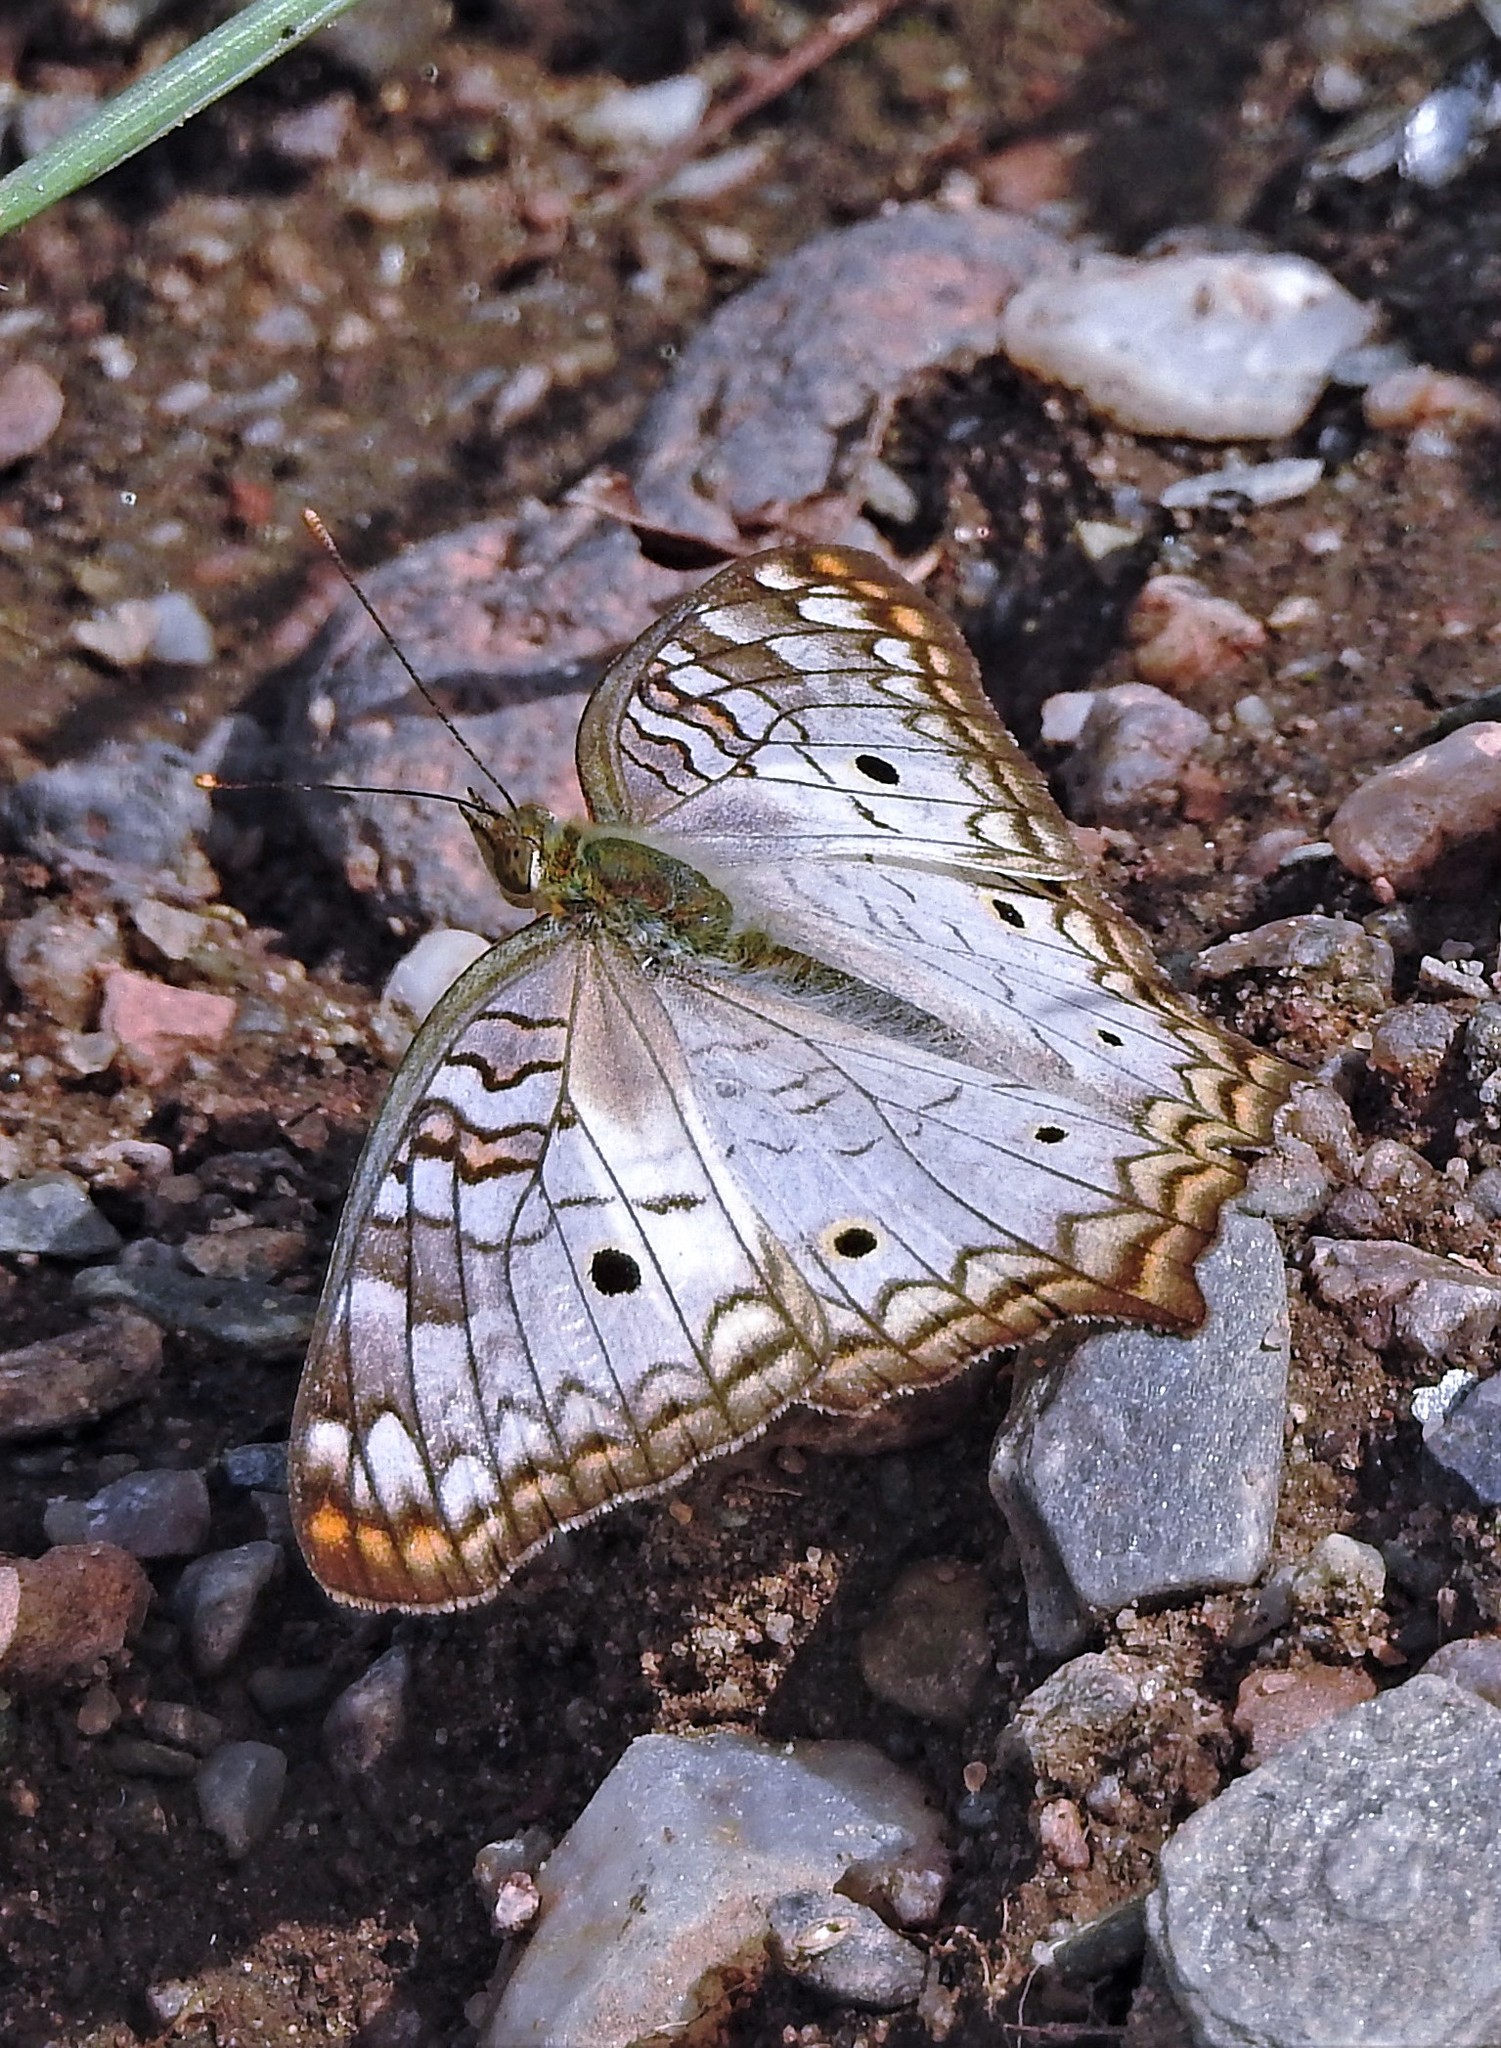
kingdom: Animalia
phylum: Arthropoda
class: Insecta
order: Lepidoptera
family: Nymphalidae
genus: Anartia
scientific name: Anartia jatrophae
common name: White peacock
